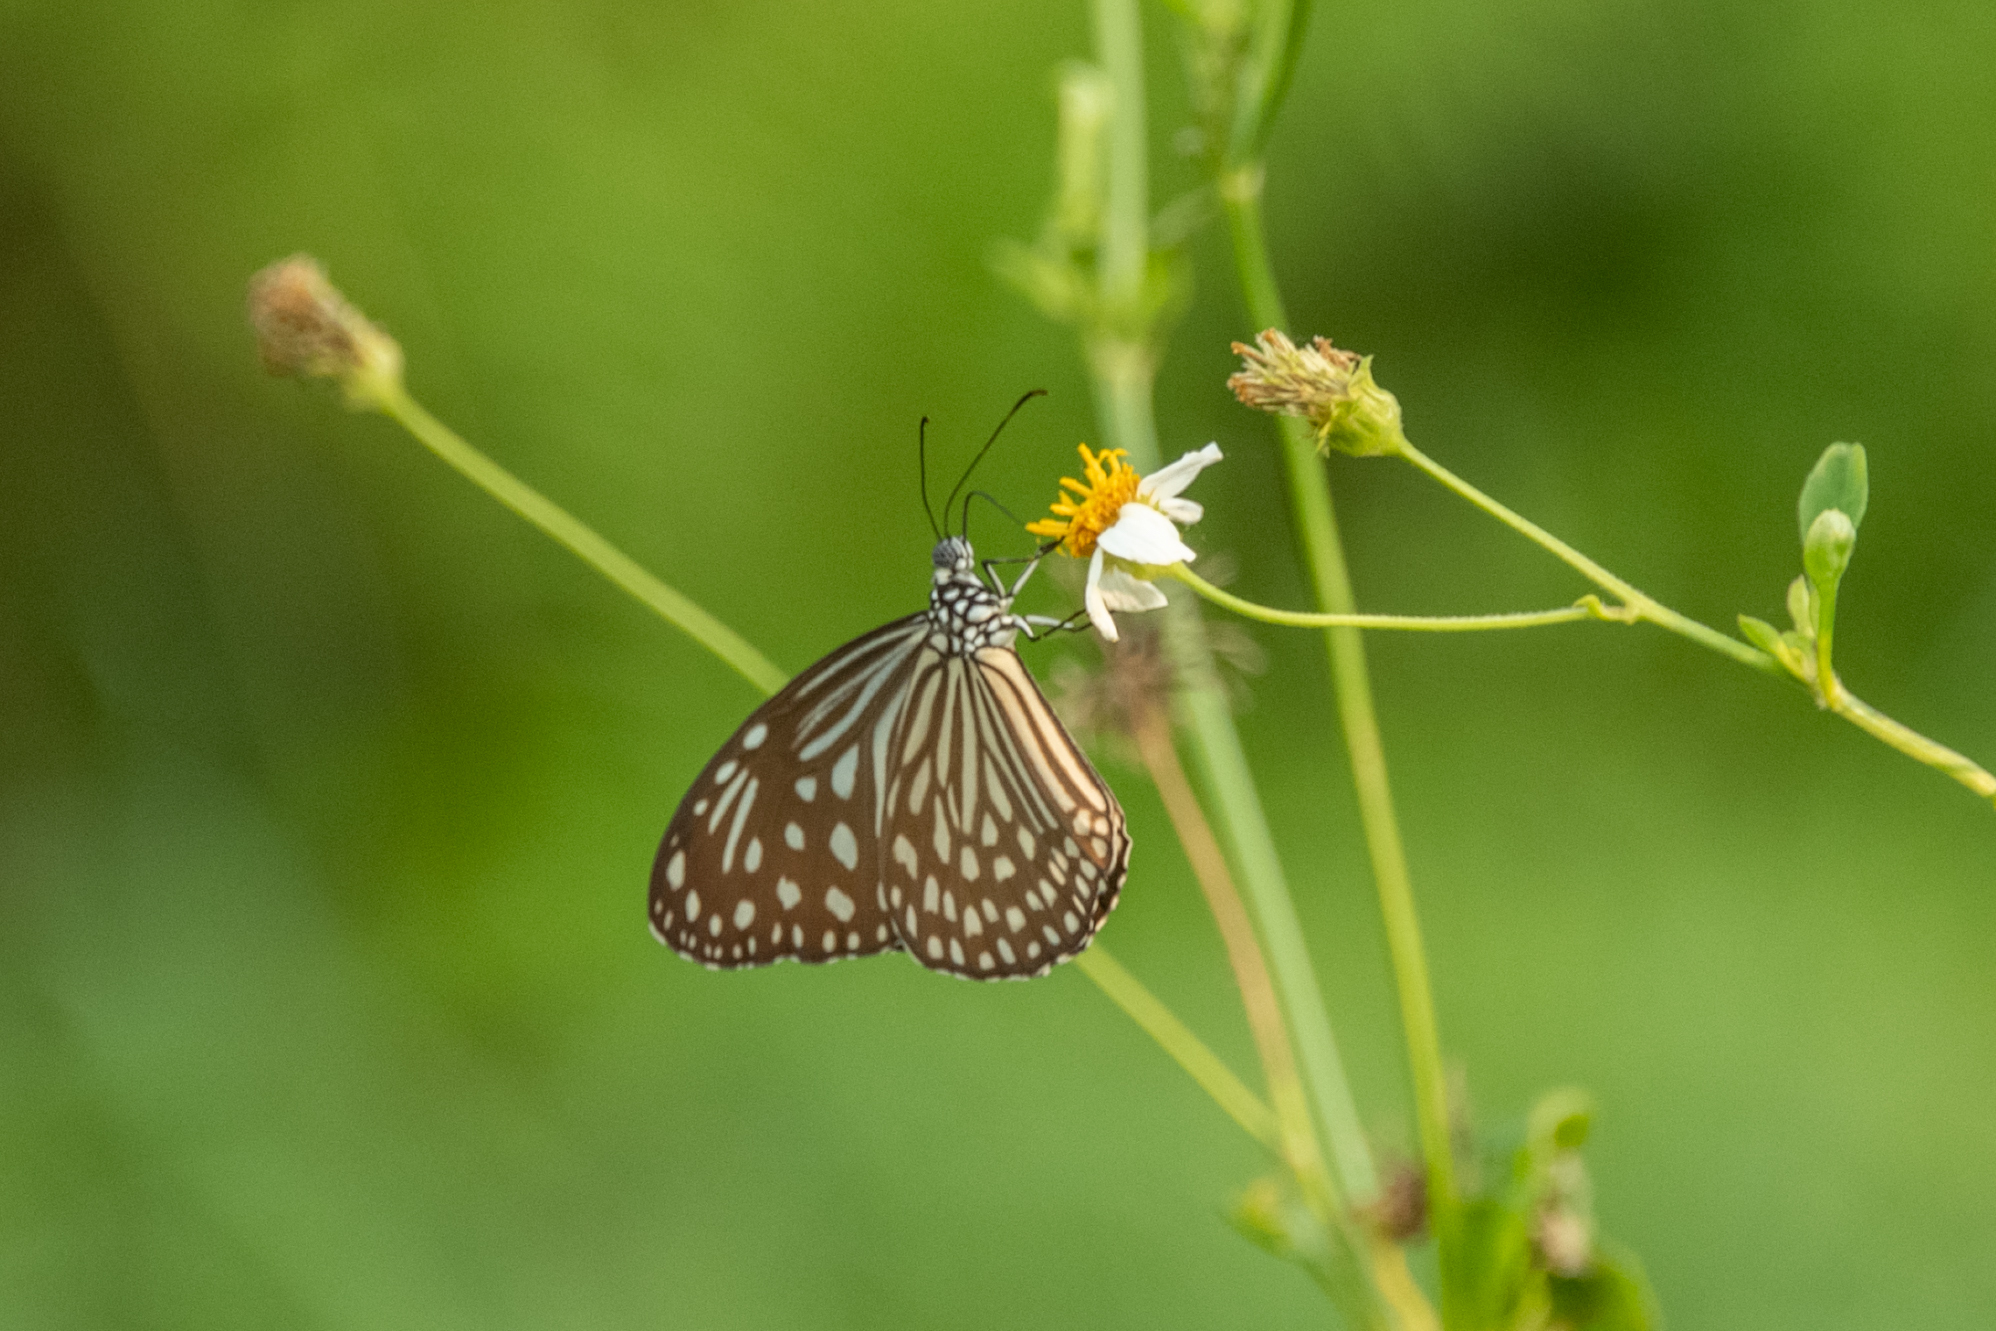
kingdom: Animalia
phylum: Arthropoda
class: Insecta
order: Lepidoptera
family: Nymphalidae
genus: Parantica
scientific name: Parantica agleoides
